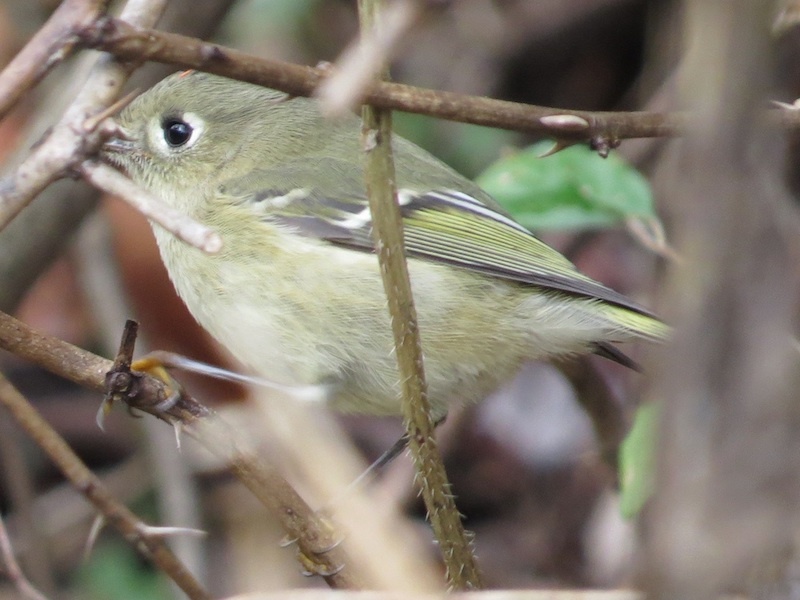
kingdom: Animalia
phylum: Chordata
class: Aves
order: Passeriformes
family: Regulidae
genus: Regulus
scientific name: Regulus calendula
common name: Ruby-crowned kinglet
